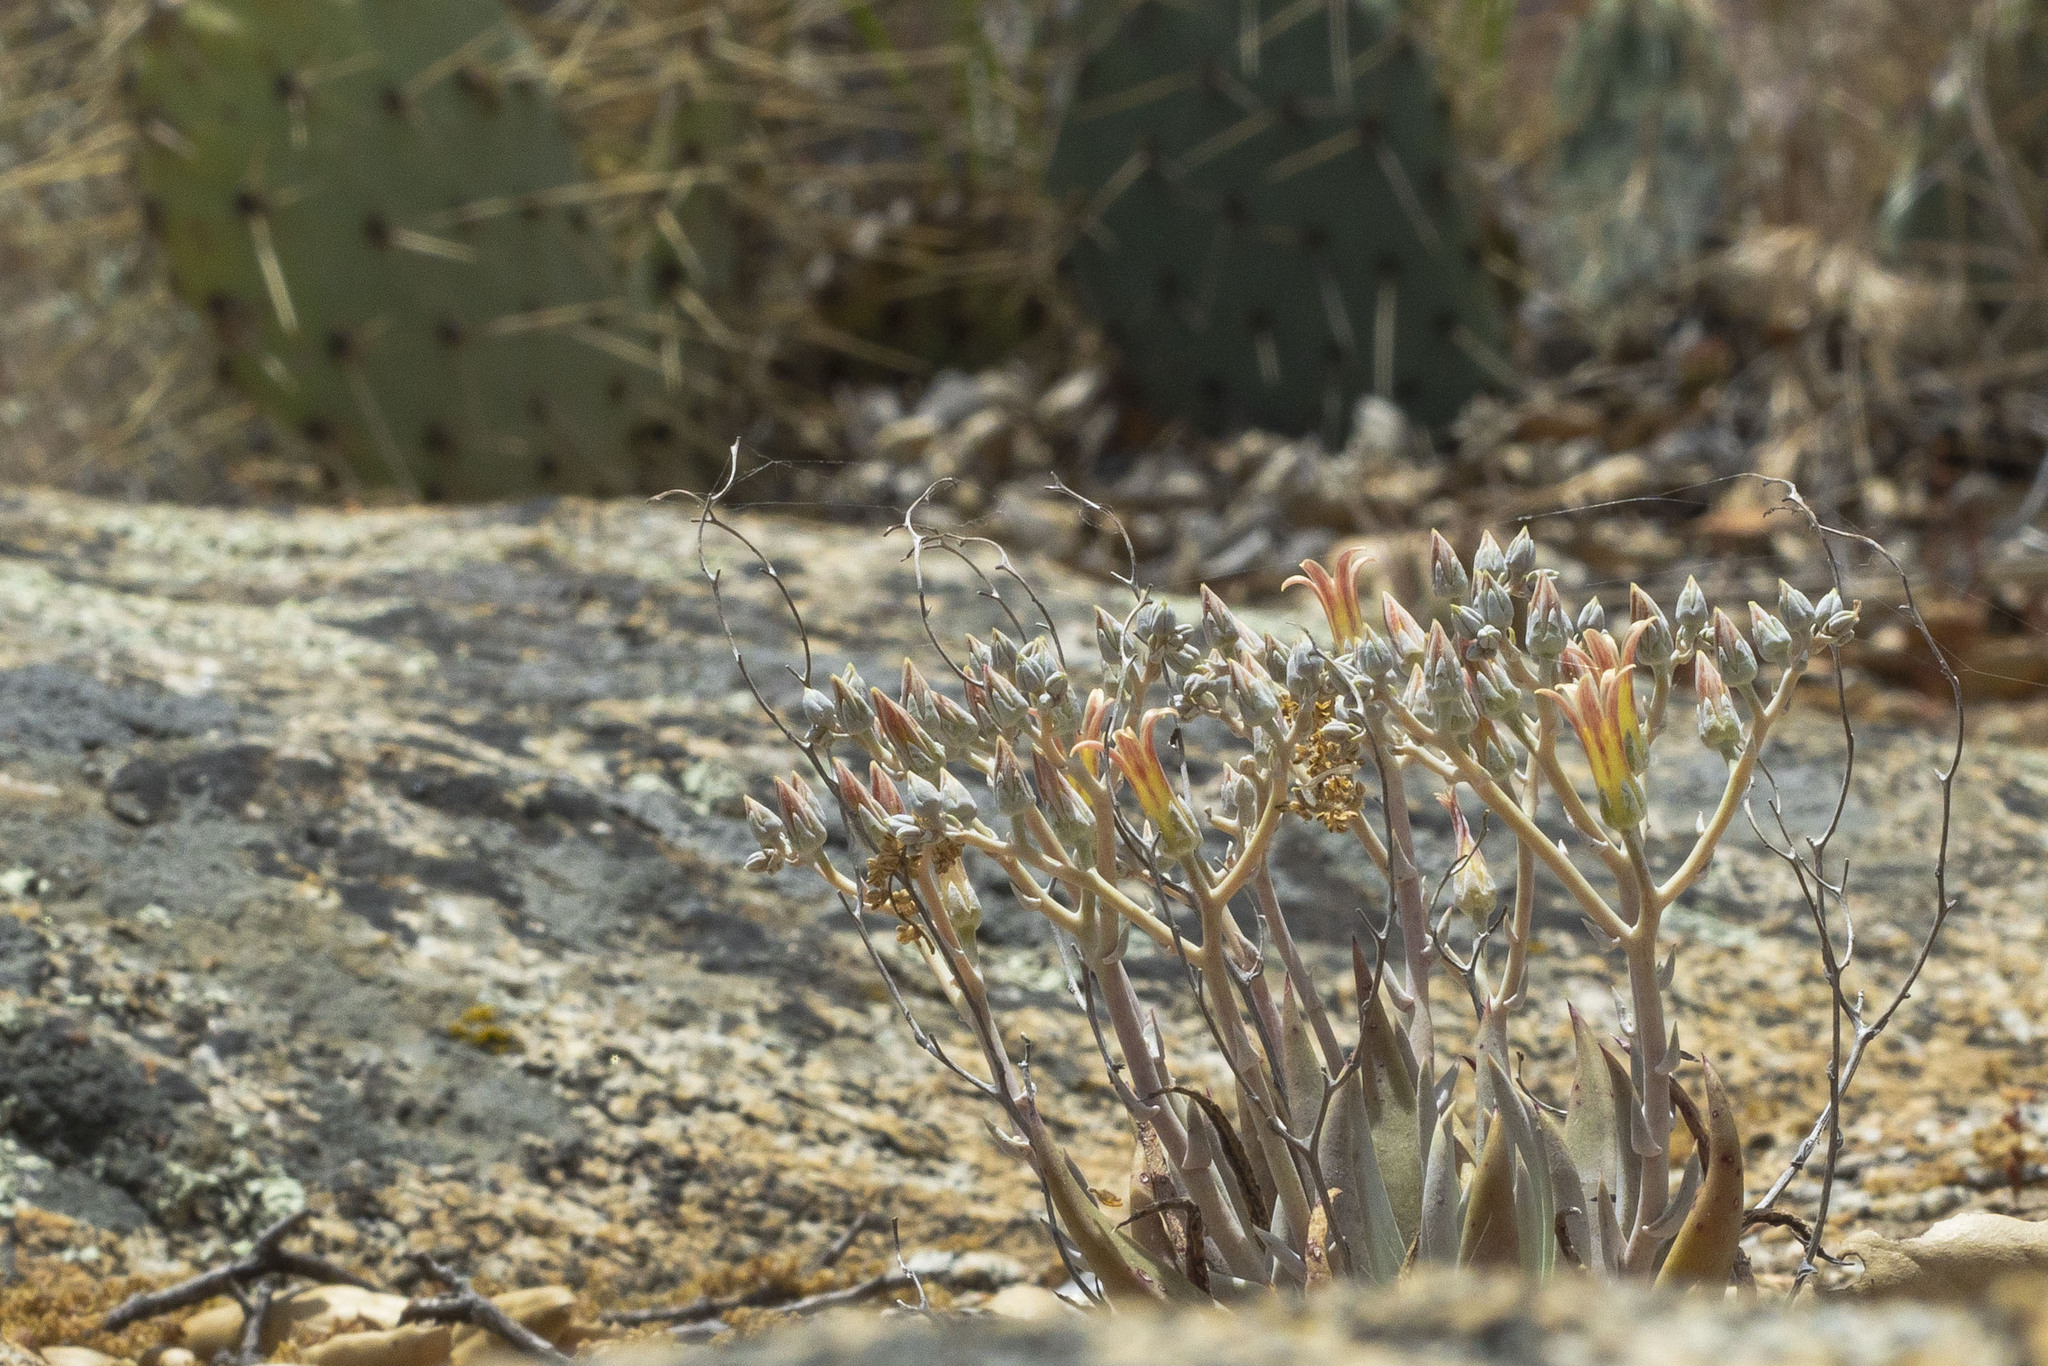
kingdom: Plantae
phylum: Tracheophyta
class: Magnoliopsida
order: Saxifragales
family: Crassulaceae
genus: Dudleya
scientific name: Dudleya abramsii
